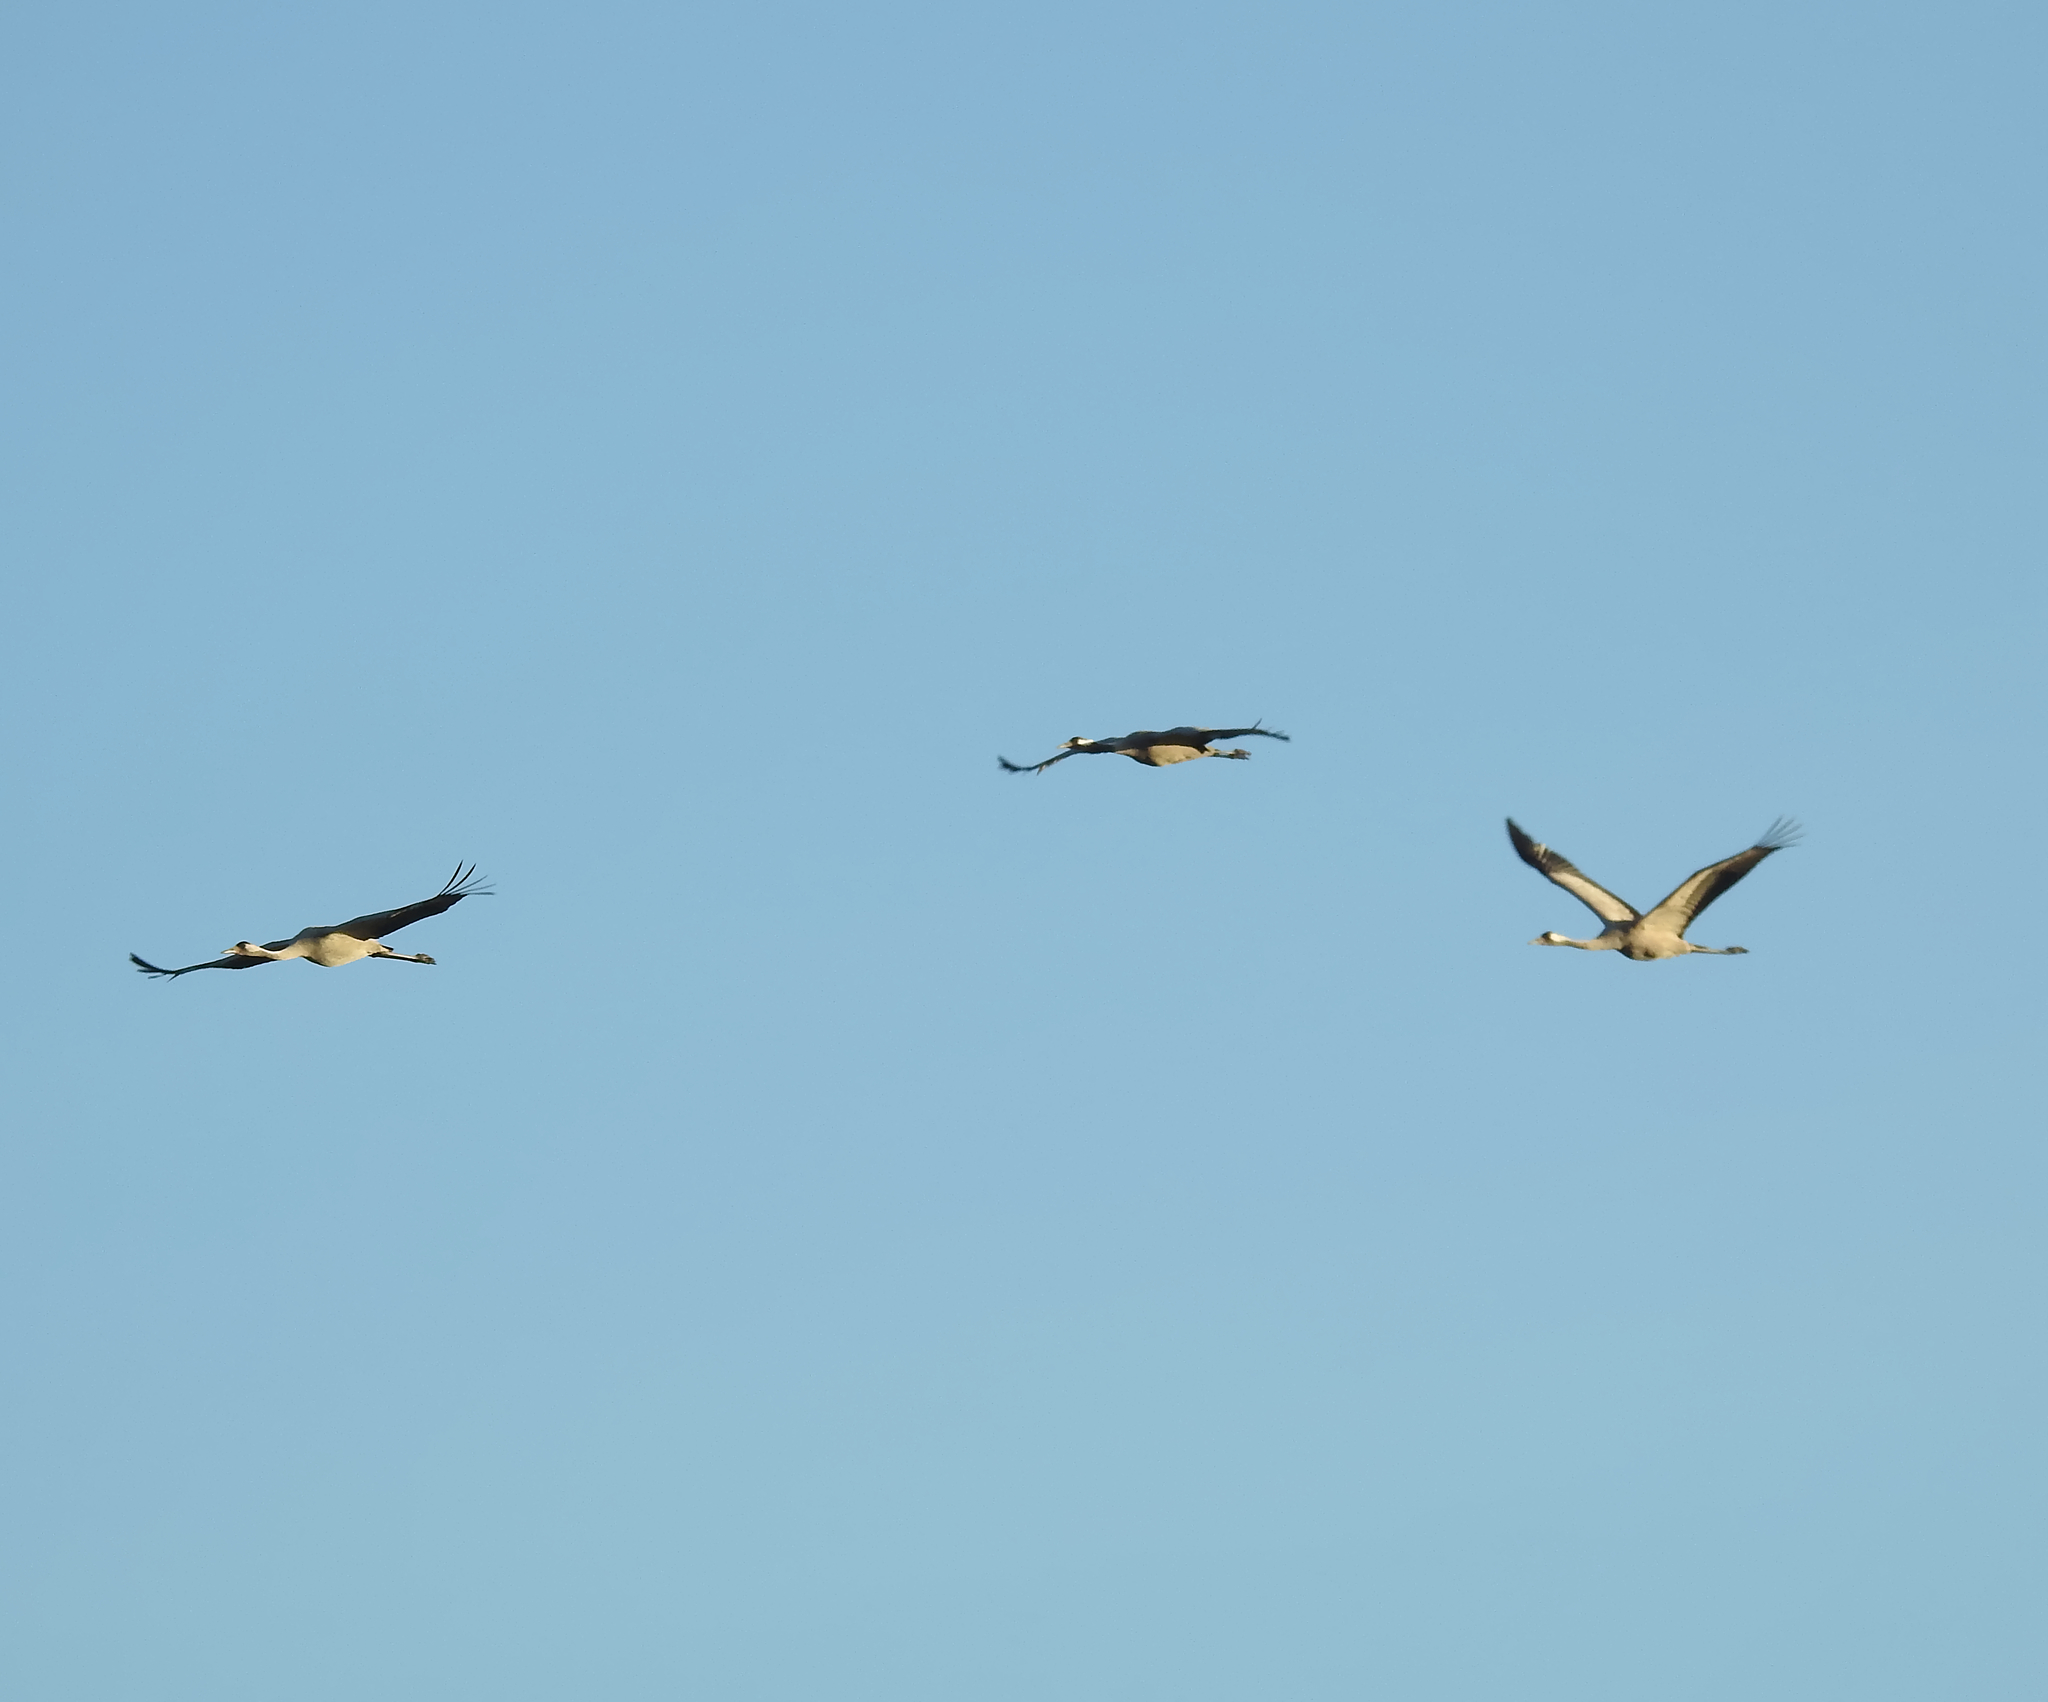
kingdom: Animalia
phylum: Chordata
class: Aves
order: Gruiformes
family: Gruidae
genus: Grus
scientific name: Grus grus
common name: Common crane
